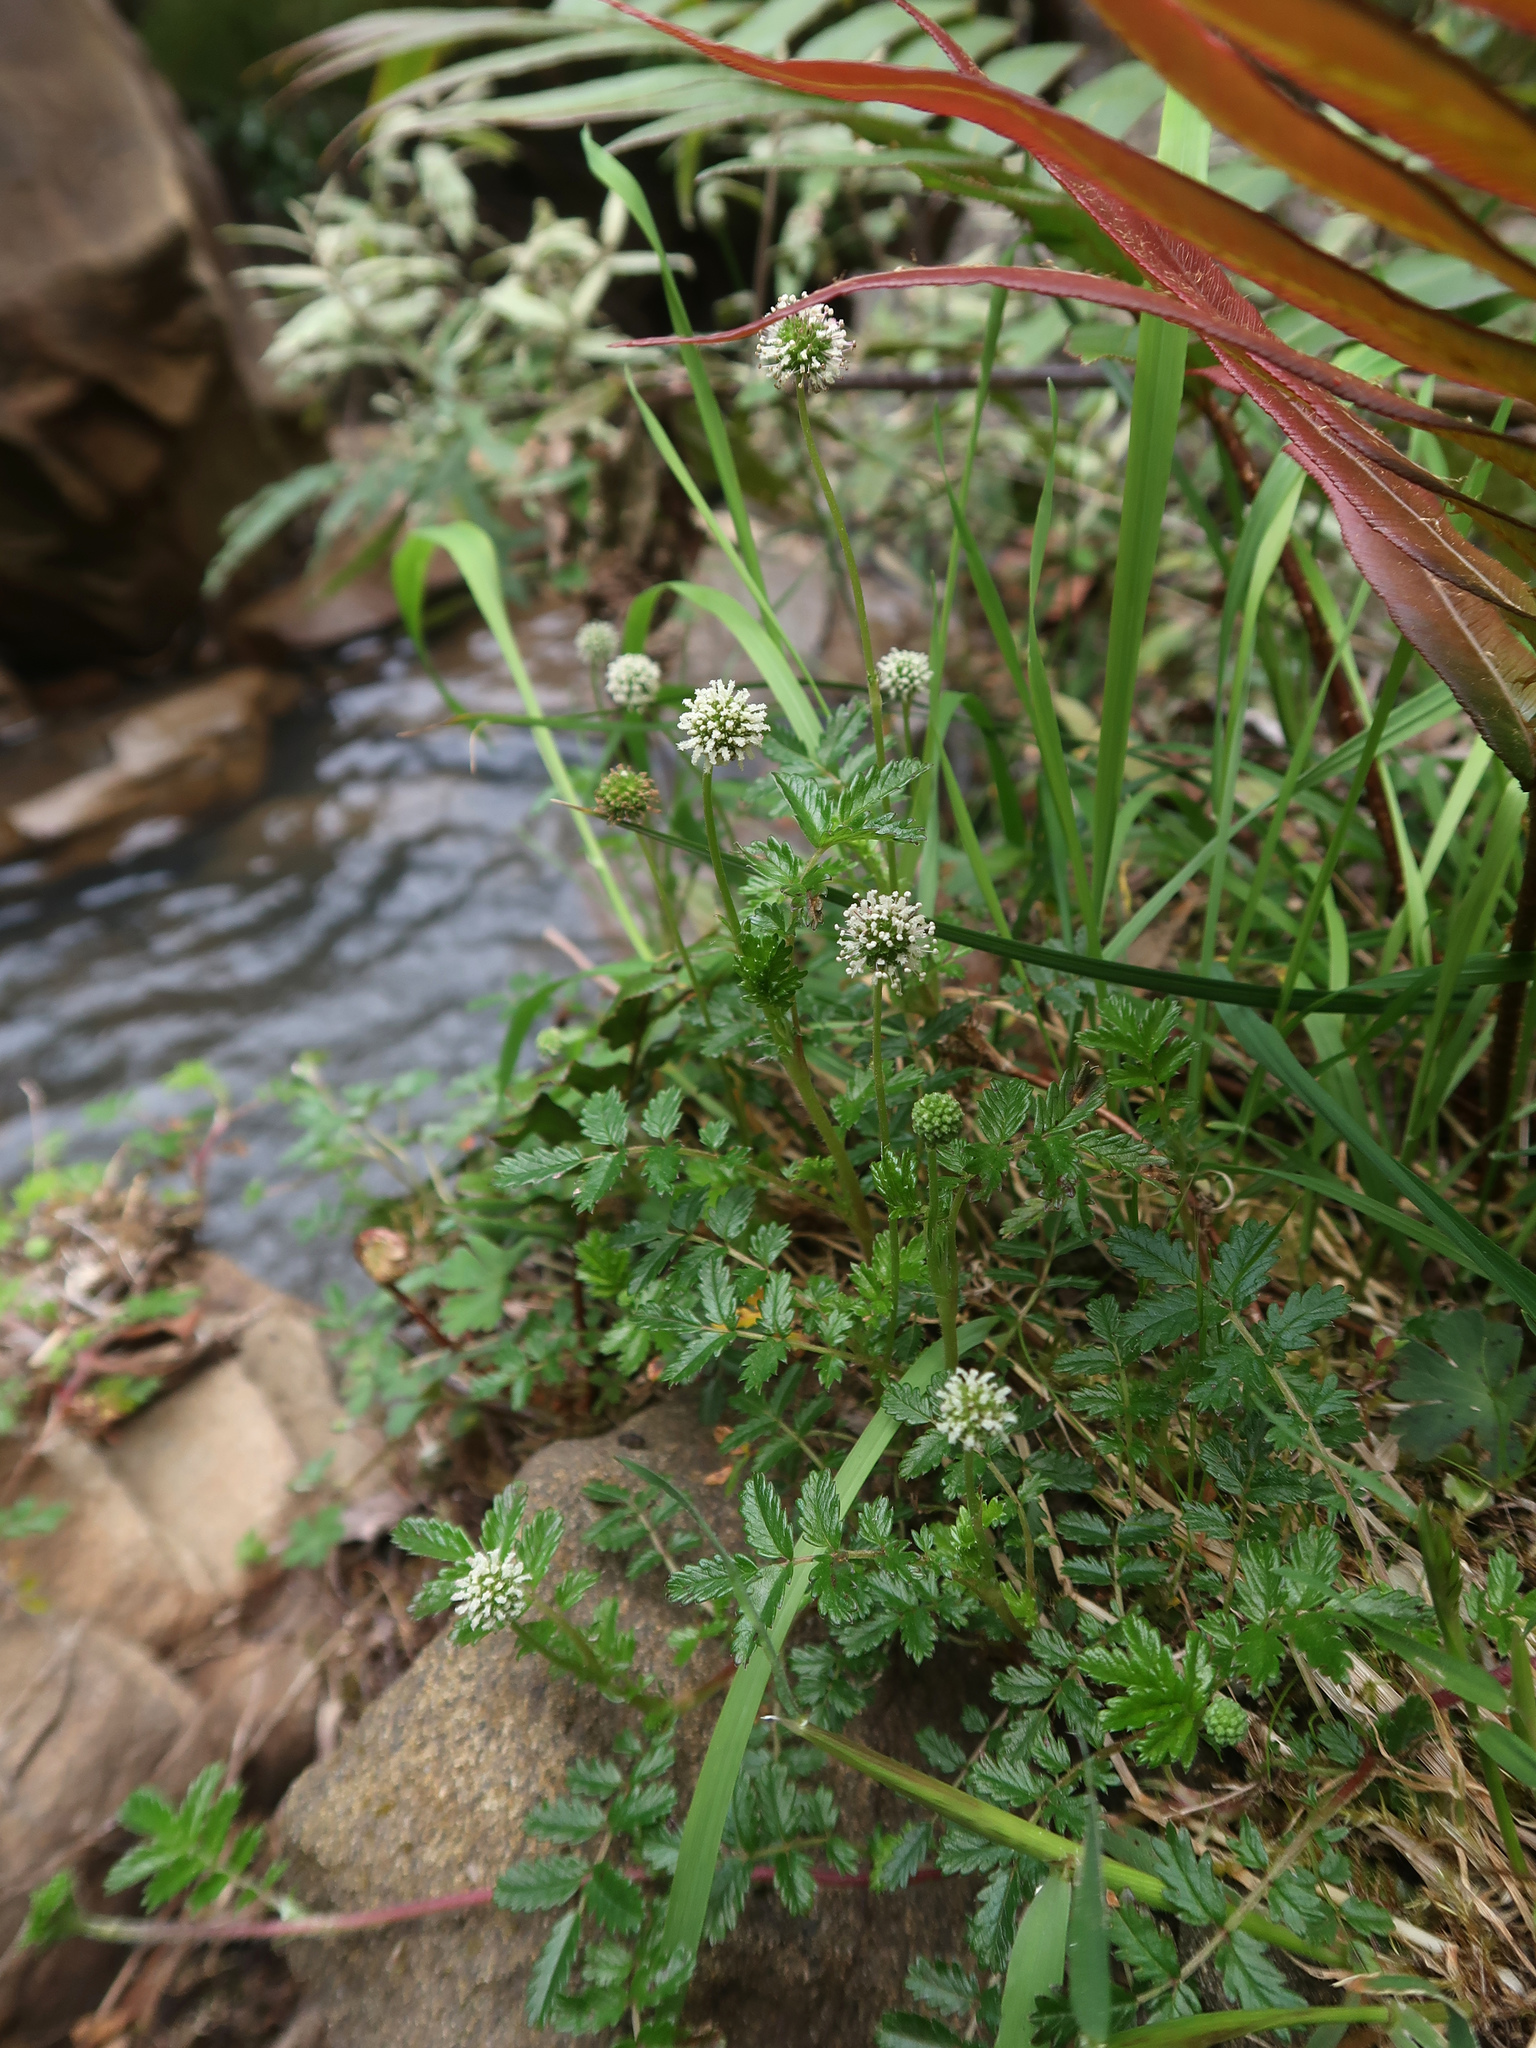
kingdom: Plantae
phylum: Tracheophyta
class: Magnoliopsida
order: Rosales
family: Rosaceae
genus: Acaena
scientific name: Acaena novae-zelandiae
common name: Pirri-pirri-bur
